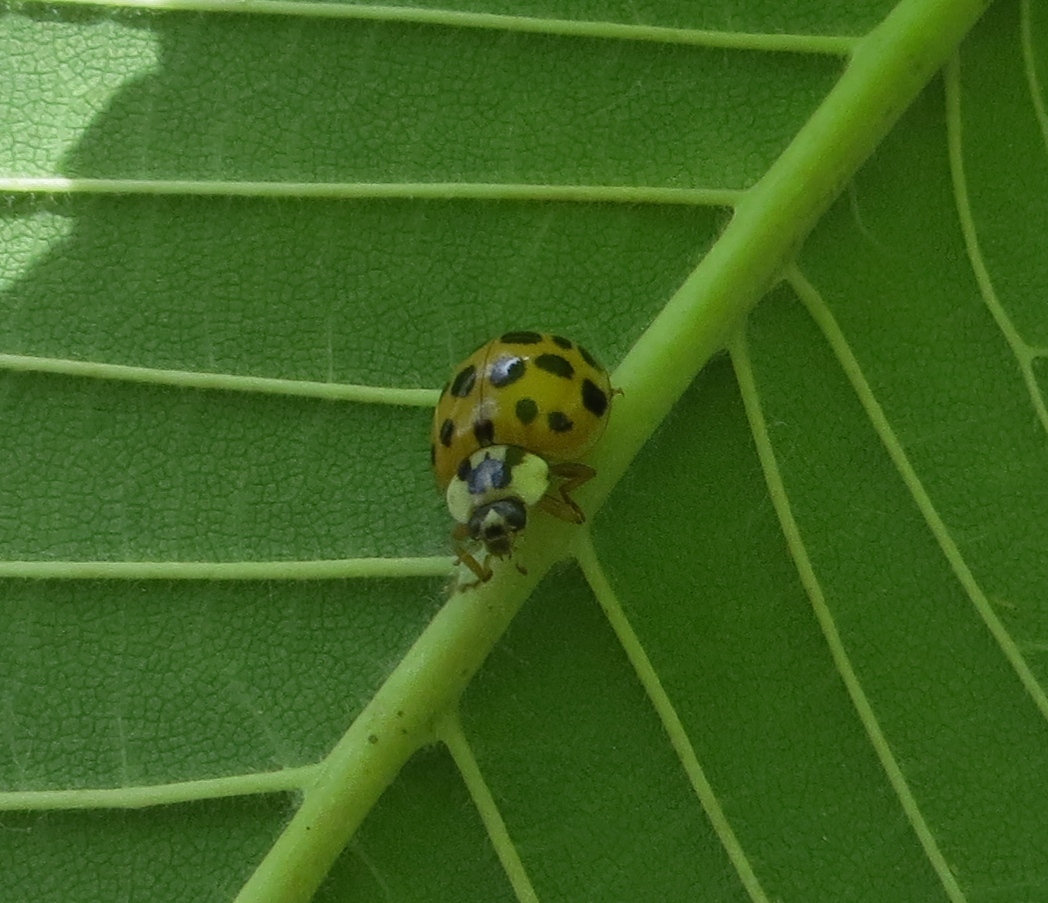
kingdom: Animalia
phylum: Arthropoda
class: Insecta
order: Coleoptera
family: Coccinellidae
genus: Harmonia
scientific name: Harmonia axyridis
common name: Harlequin ladybird
